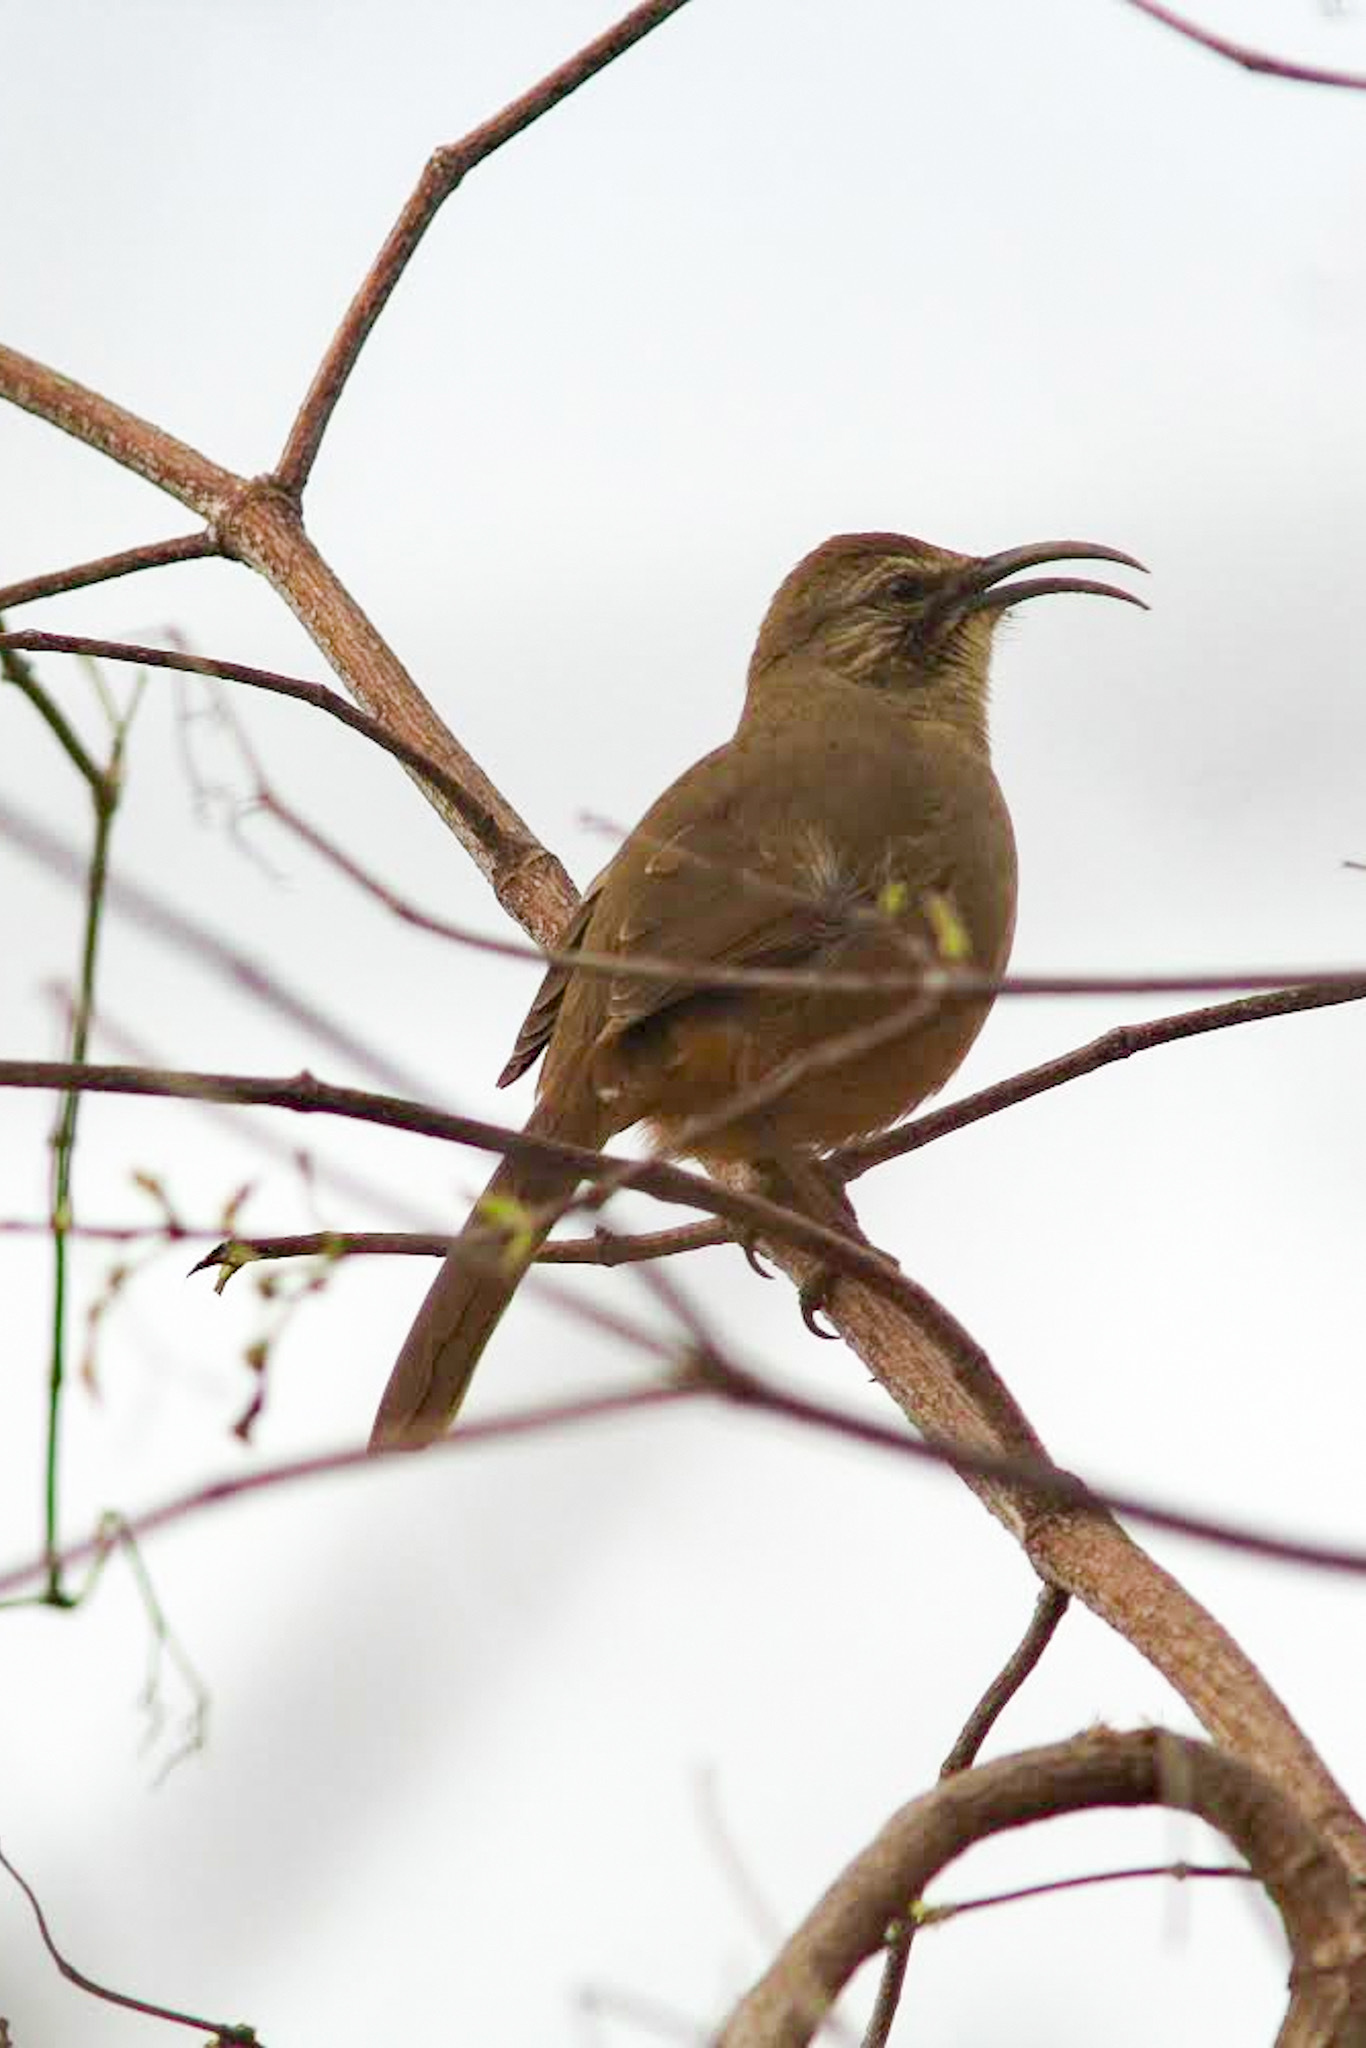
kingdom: Animalia
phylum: Chordata
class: Aves
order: Passeriformes
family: Mimidae
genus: Toxostoma
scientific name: Toxostoma redivivum
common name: California thrasher
